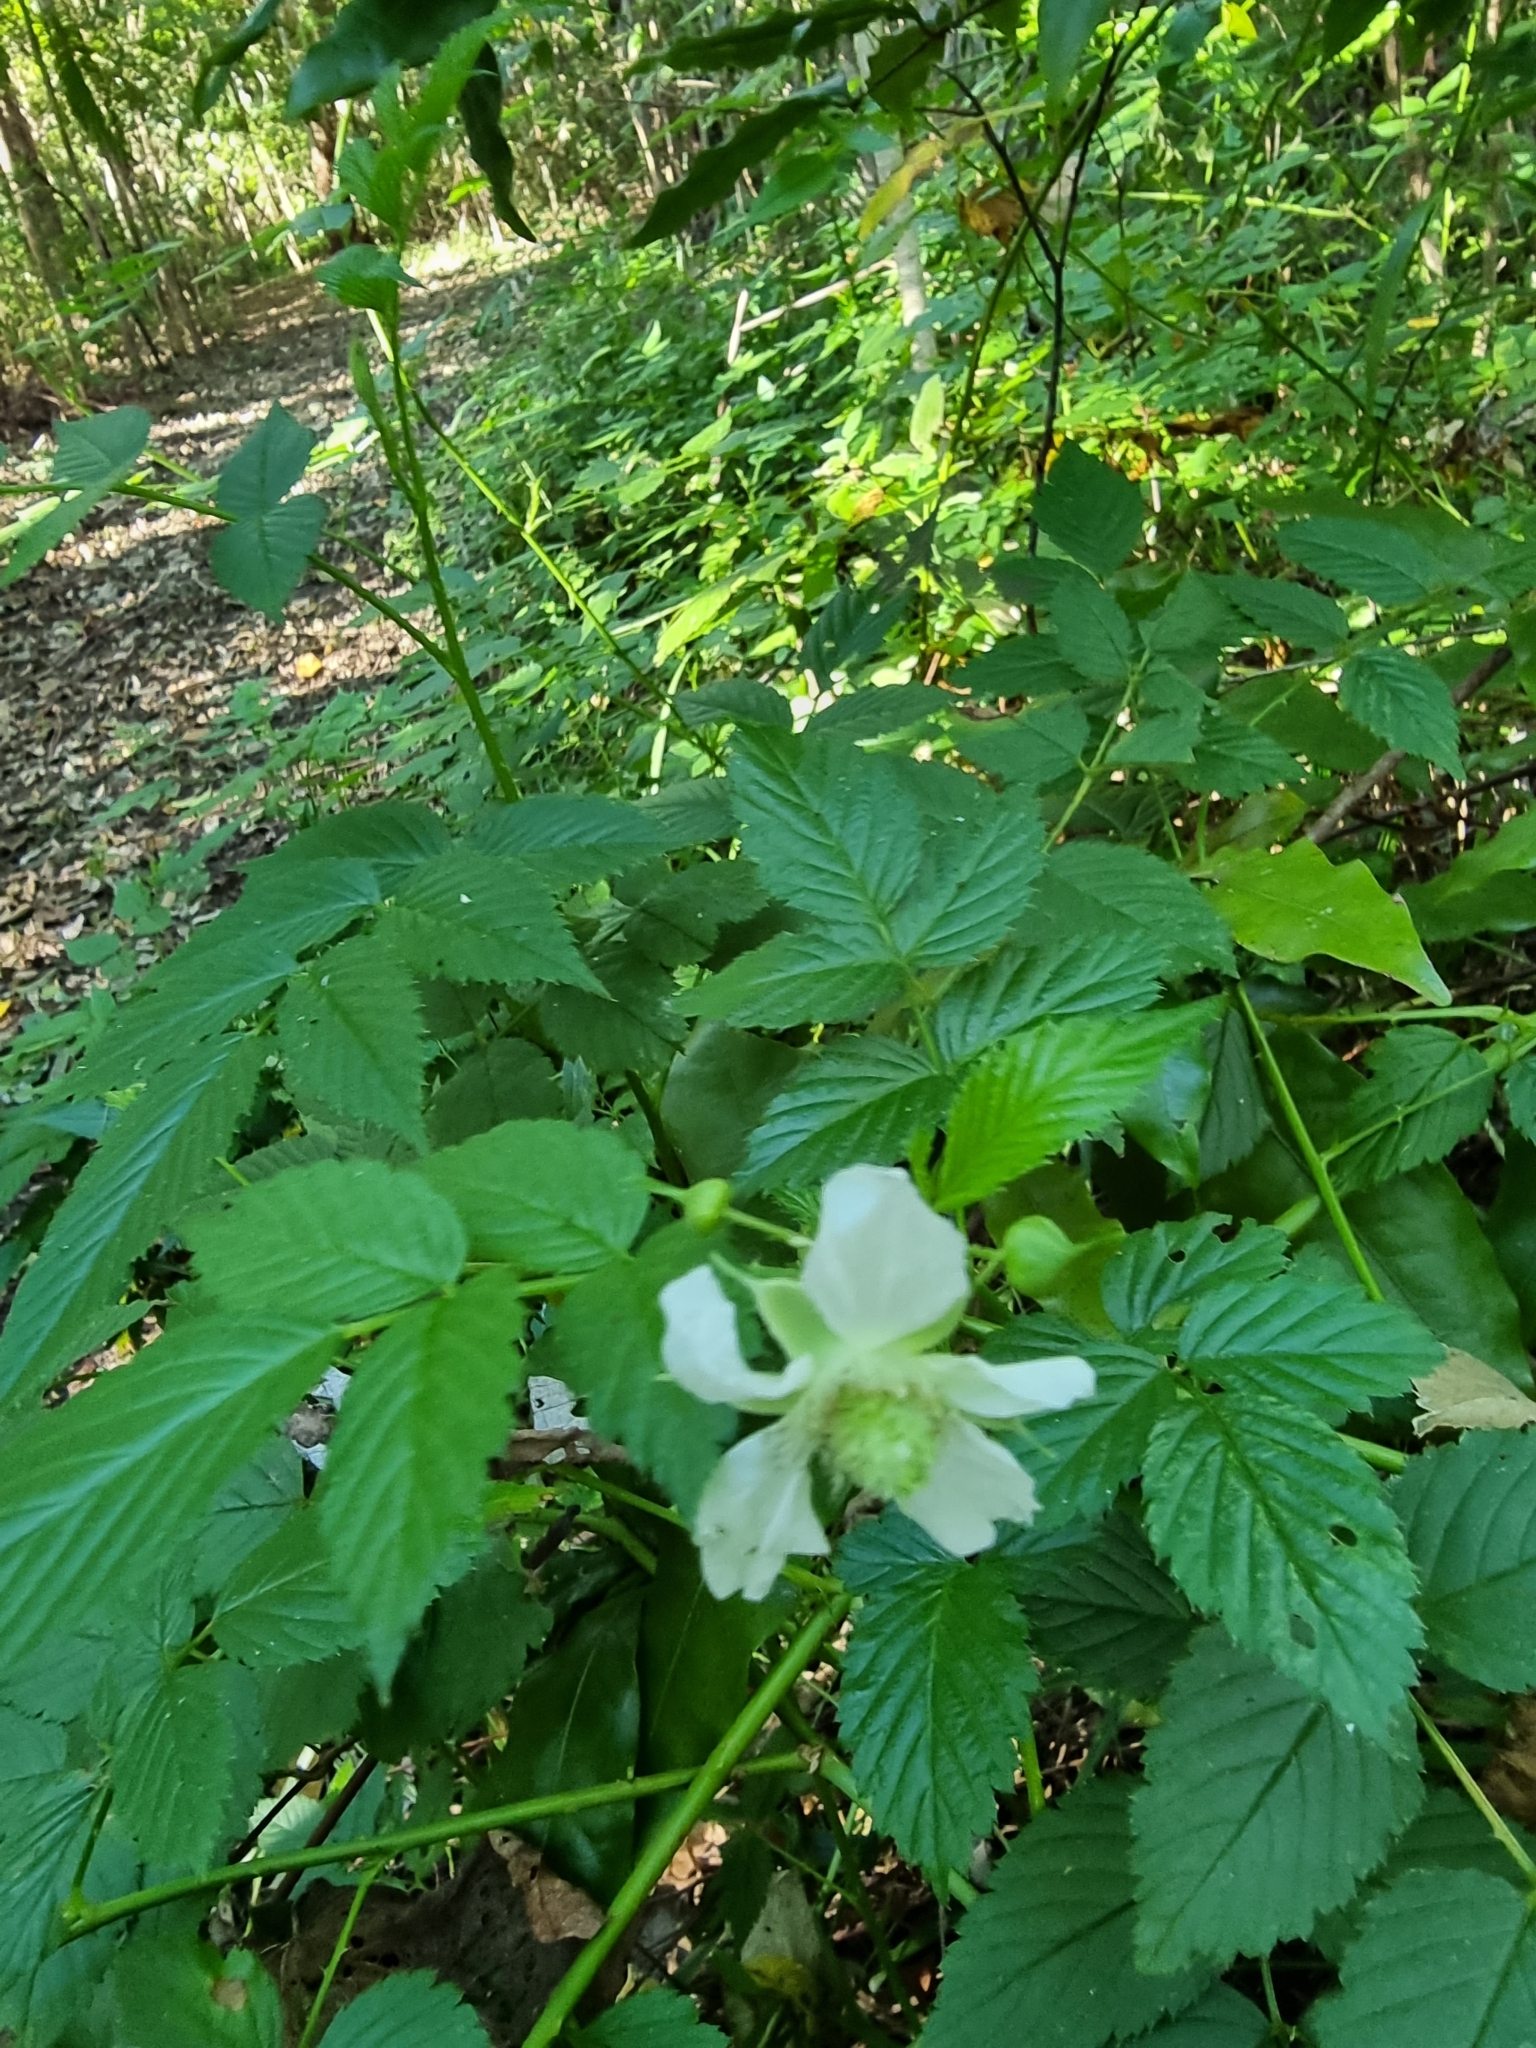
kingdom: Plantae
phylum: Tracheophyta
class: Magnoliopsida
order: Rosales
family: Rosaceae
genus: Rubus
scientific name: Rubus rosifolius
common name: Roseleaf raspberry
